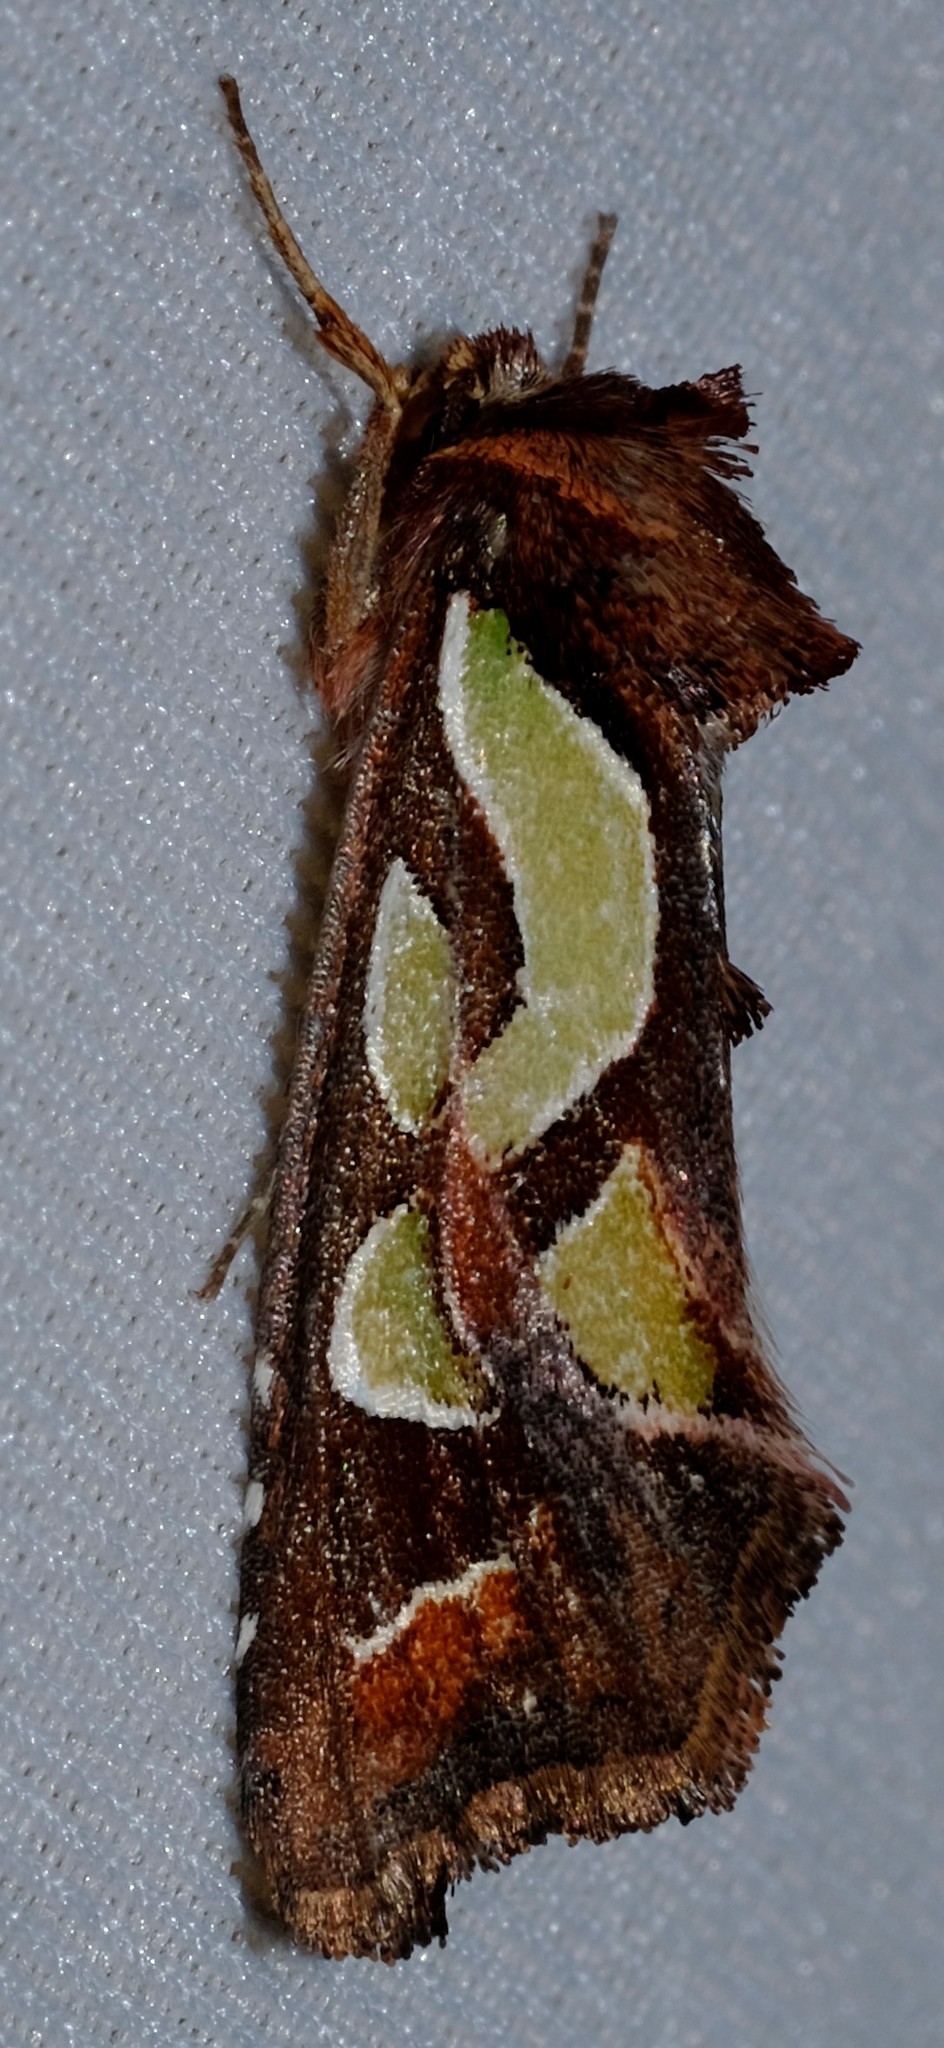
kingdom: Animalia
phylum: Arthropoda
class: Insecta
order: Lepidoptera
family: Noctuidae
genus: Cosmodes
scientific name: Cosmodes elegans
